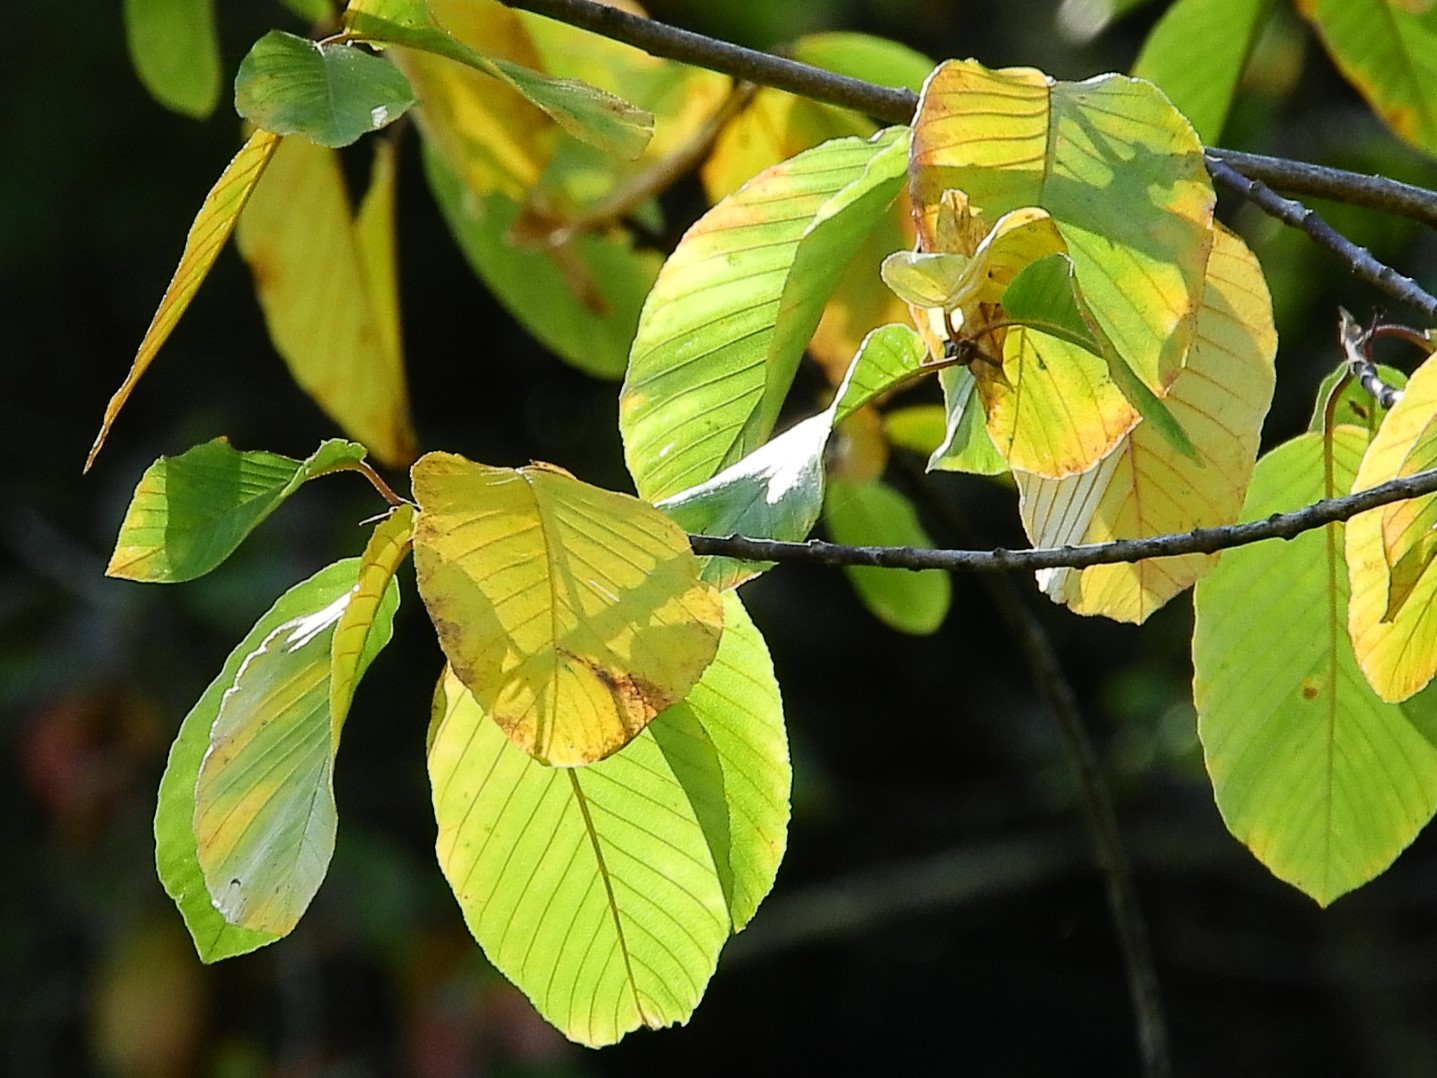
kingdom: Plantae
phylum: Tracheophyta
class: Magnoliopsida
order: Rosales
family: Rhamnaceae
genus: Frangula
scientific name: Frangula purshiana
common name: Cascara buckthorn
